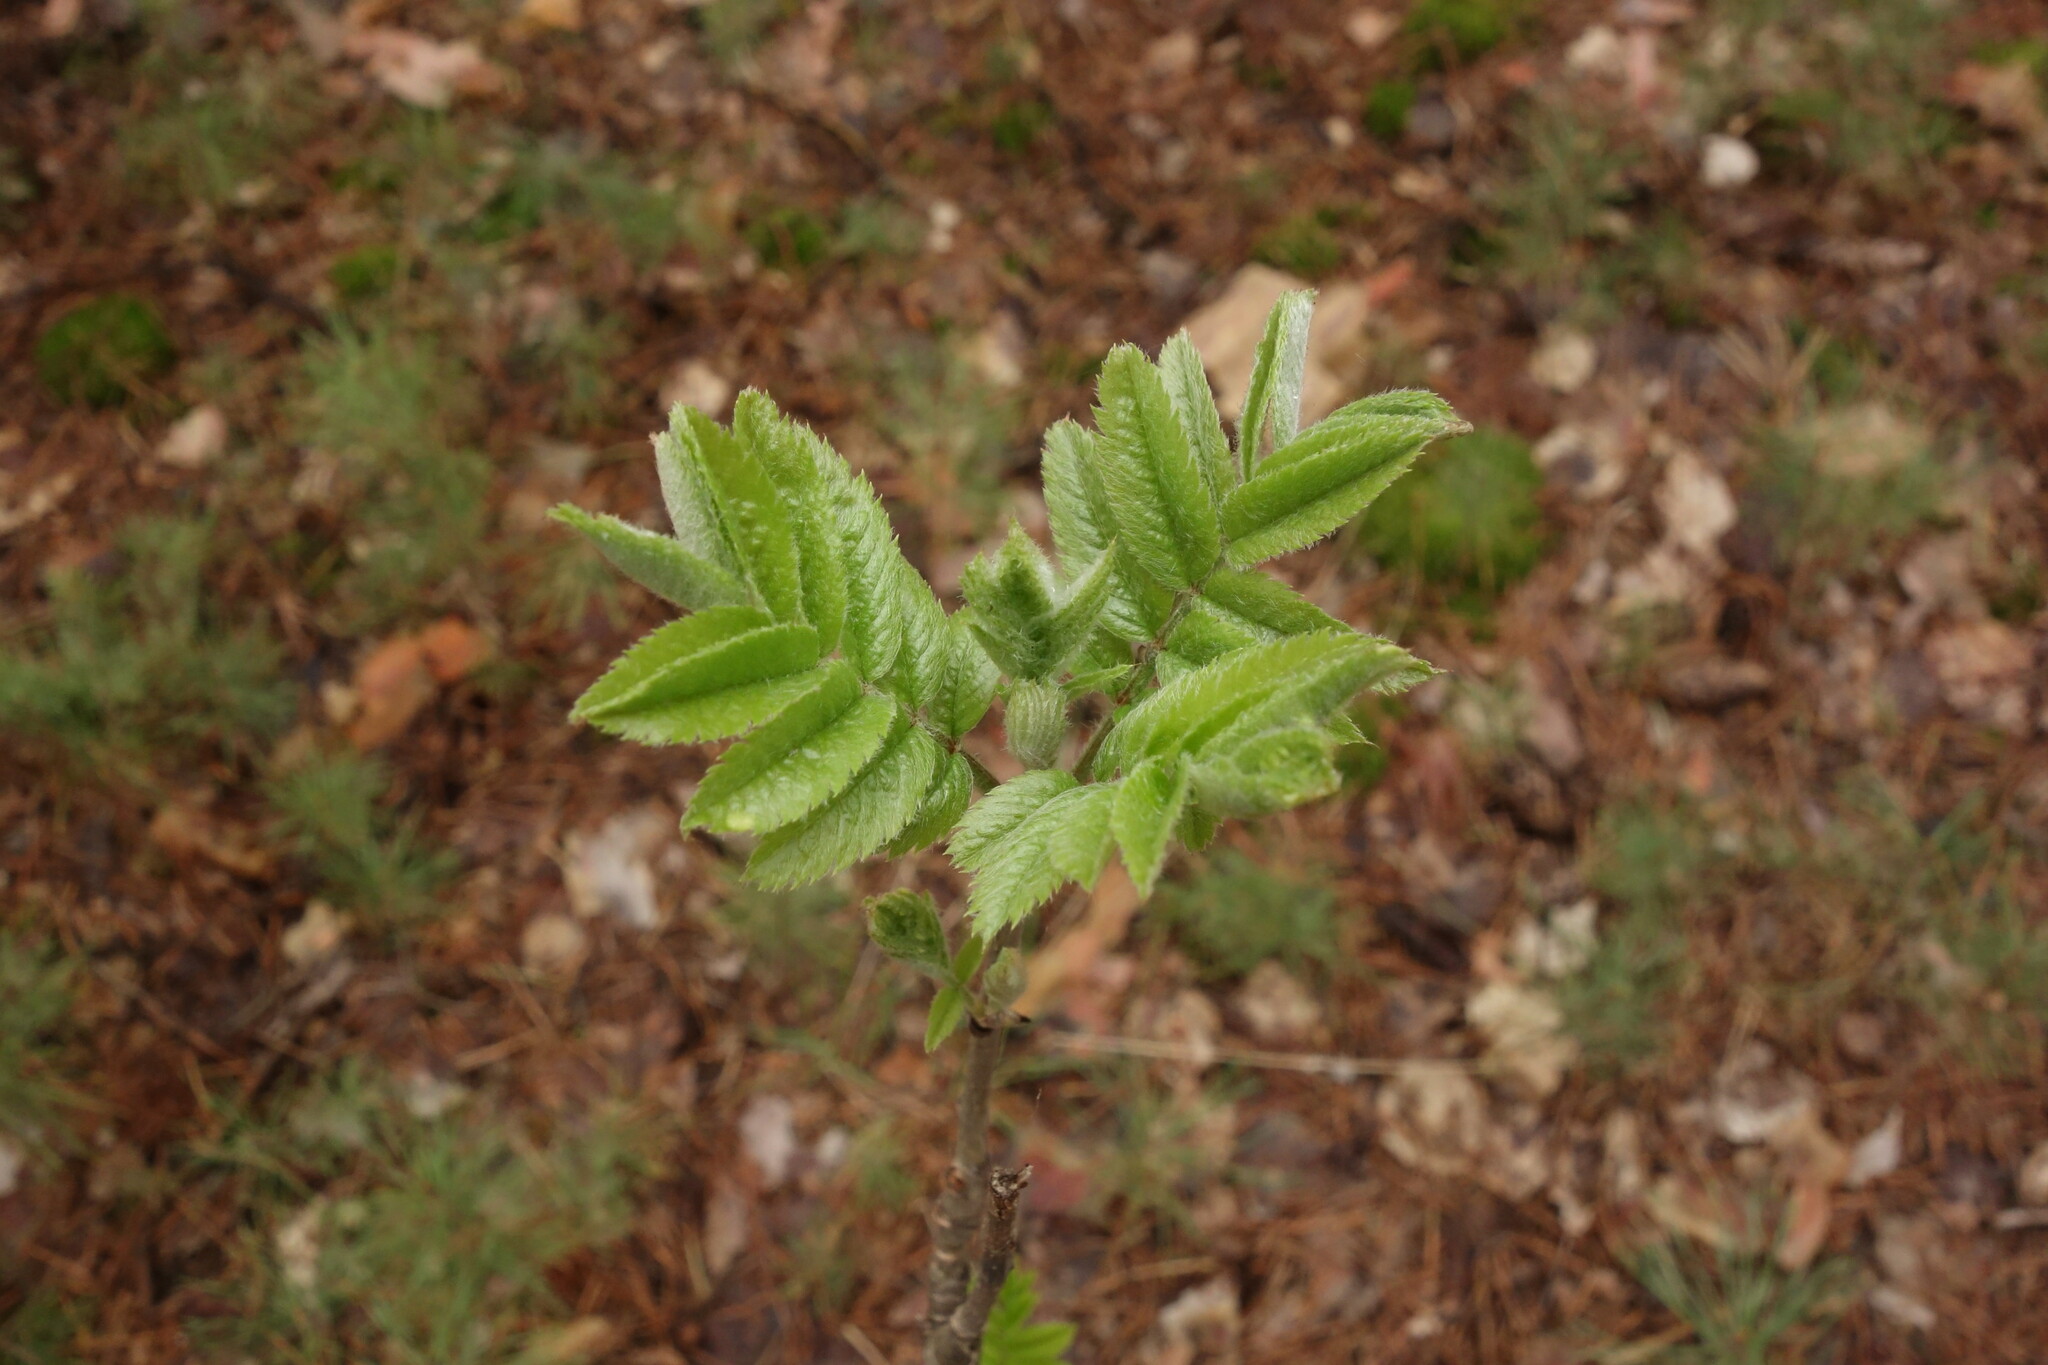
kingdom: Plantae
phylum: Tracheophyta
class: Magnoliopsida
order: Rosales
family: Rosaceae
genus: Sorbus
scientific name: Sorbus aucuparia
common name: Rowan
